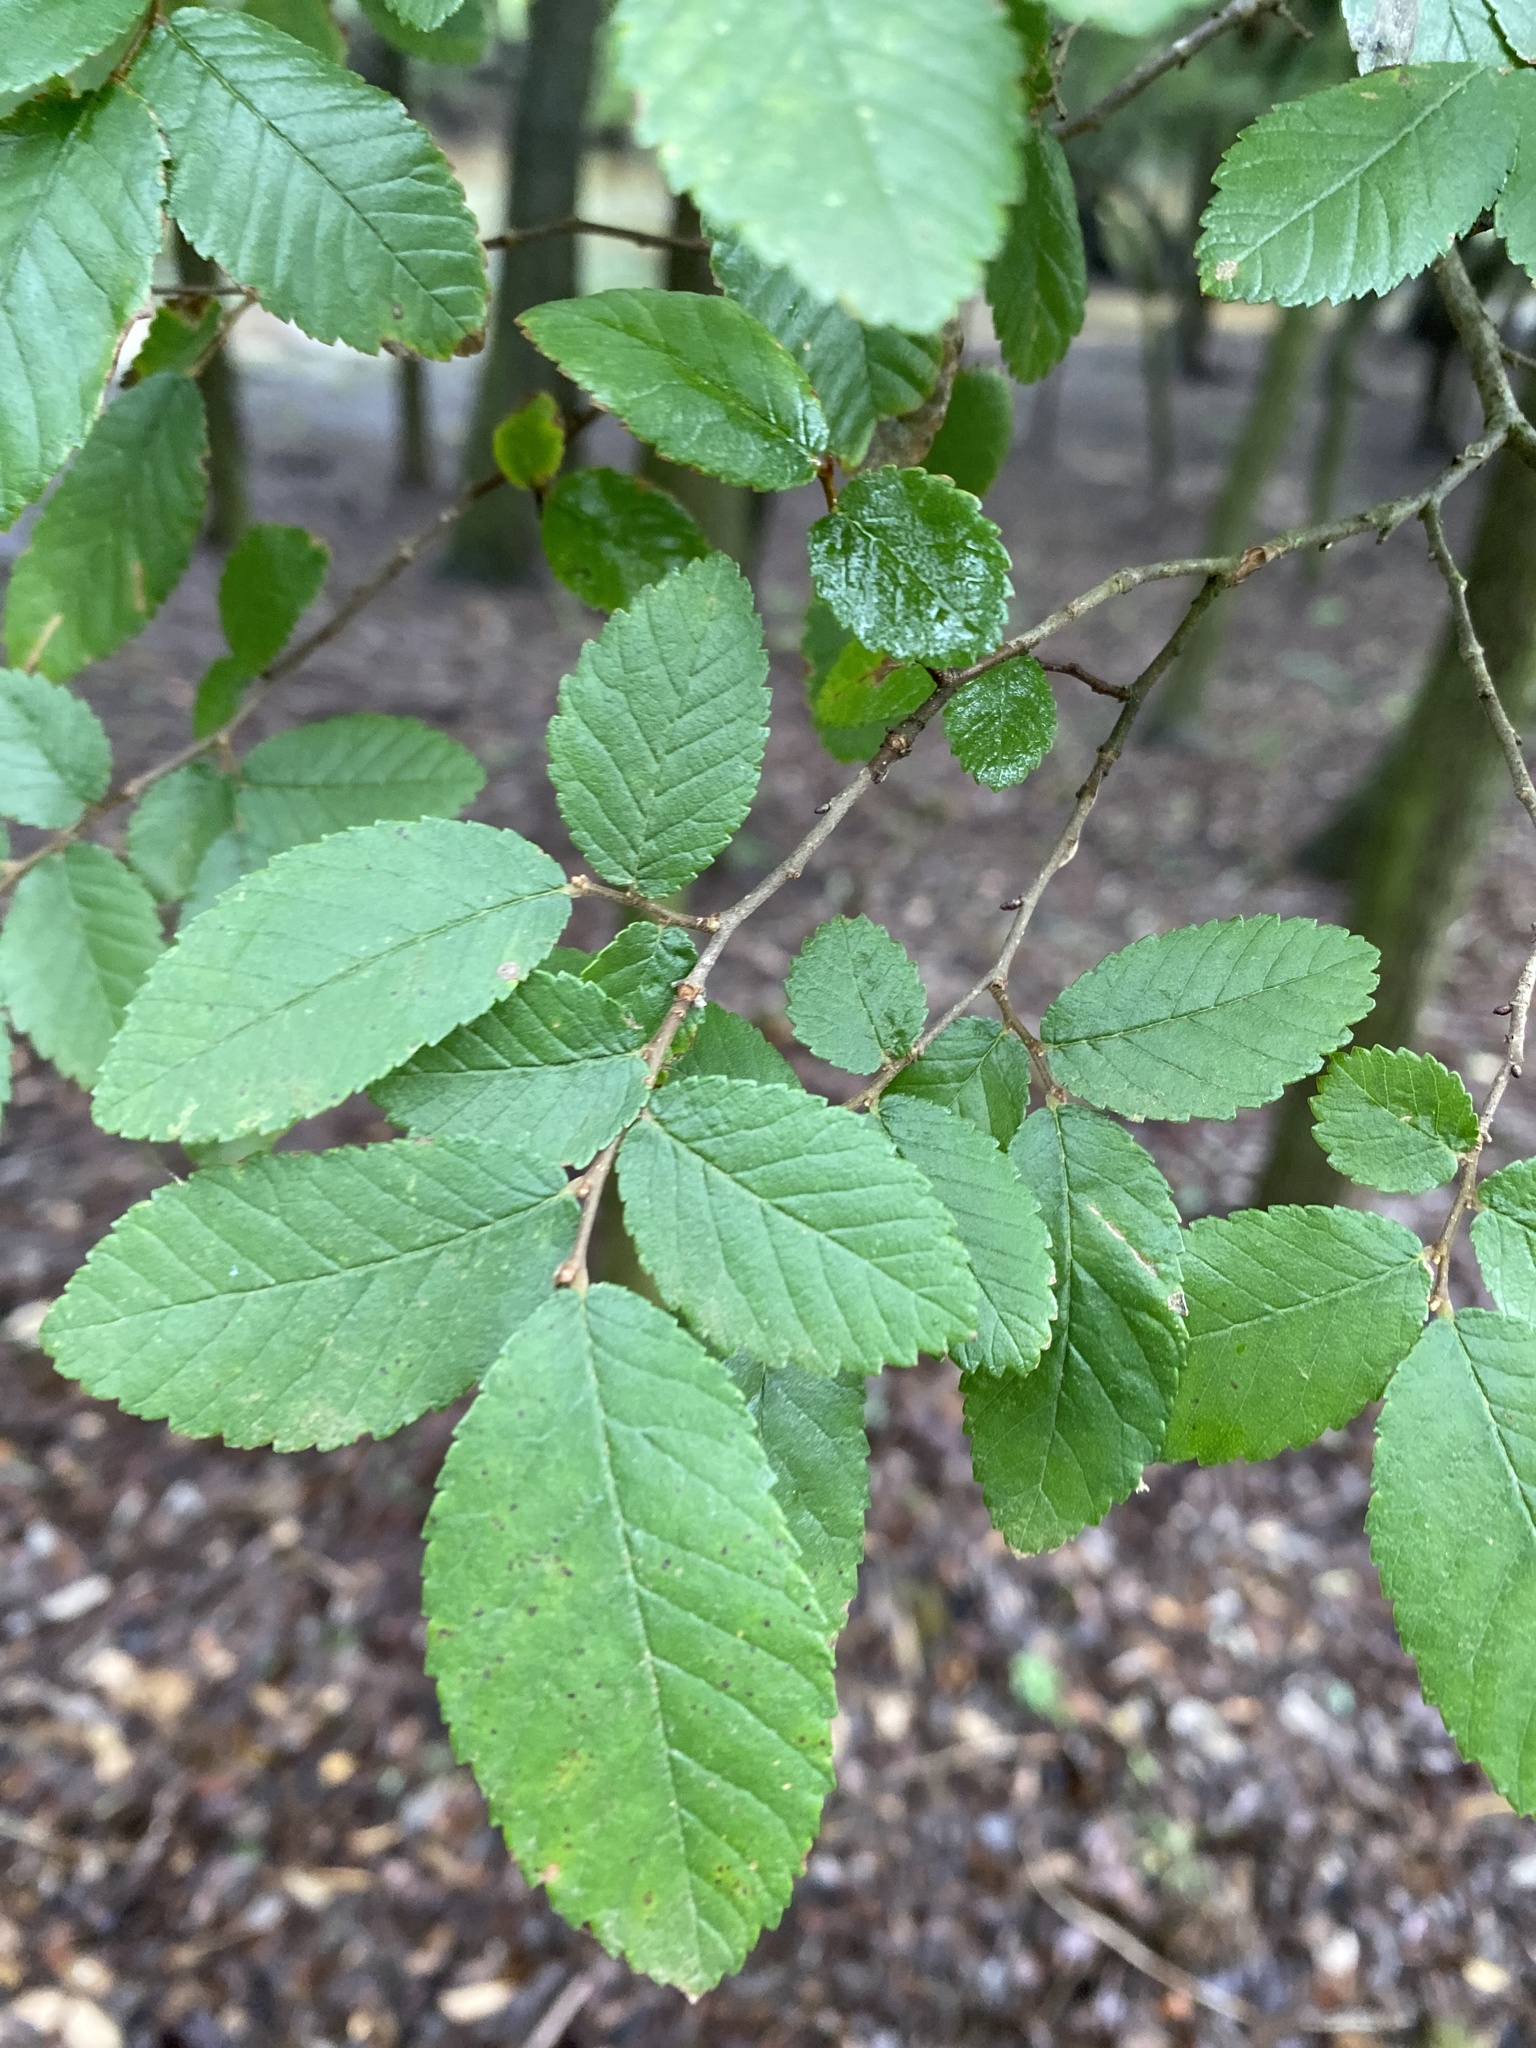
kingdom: Plantae
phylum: Tracheophyta
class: Magnoliopsida
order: Rosales
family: Ulmaceae
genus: Ulmus
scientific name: Ulmus crassifolia
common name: Basket elm
